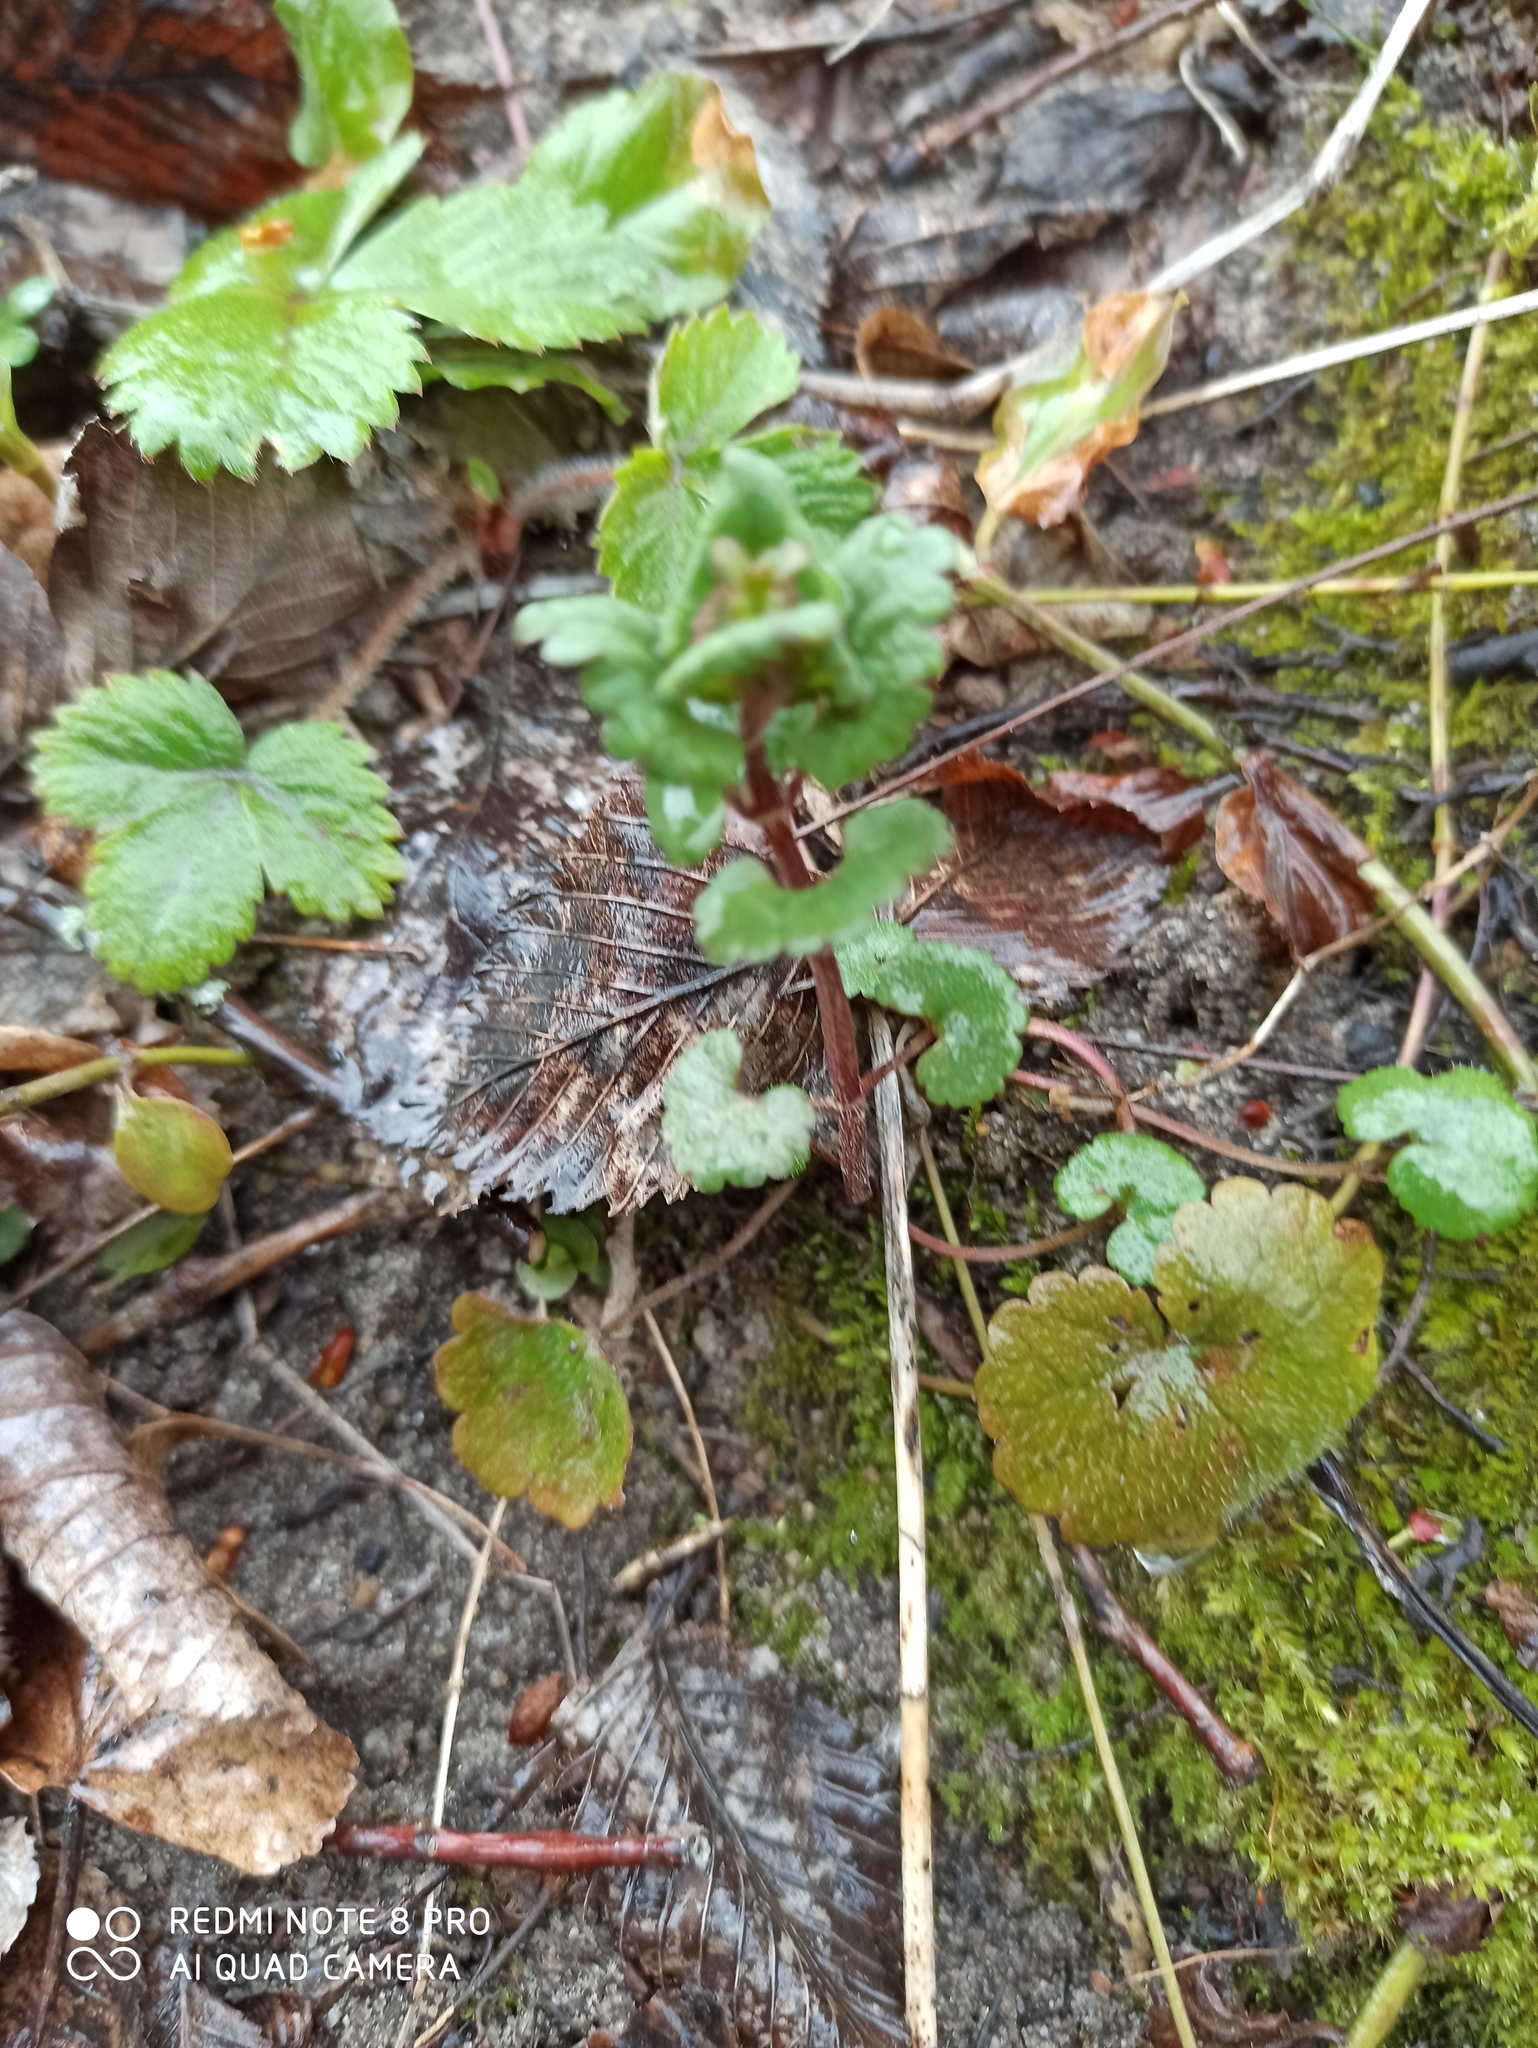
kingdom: Plantae
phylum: Tracheophyta
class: Magnoliopsida
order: Lamiales
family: Lamiaceae
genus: Glechoma
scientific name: Glechoma hederacea
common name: Ground ivy
